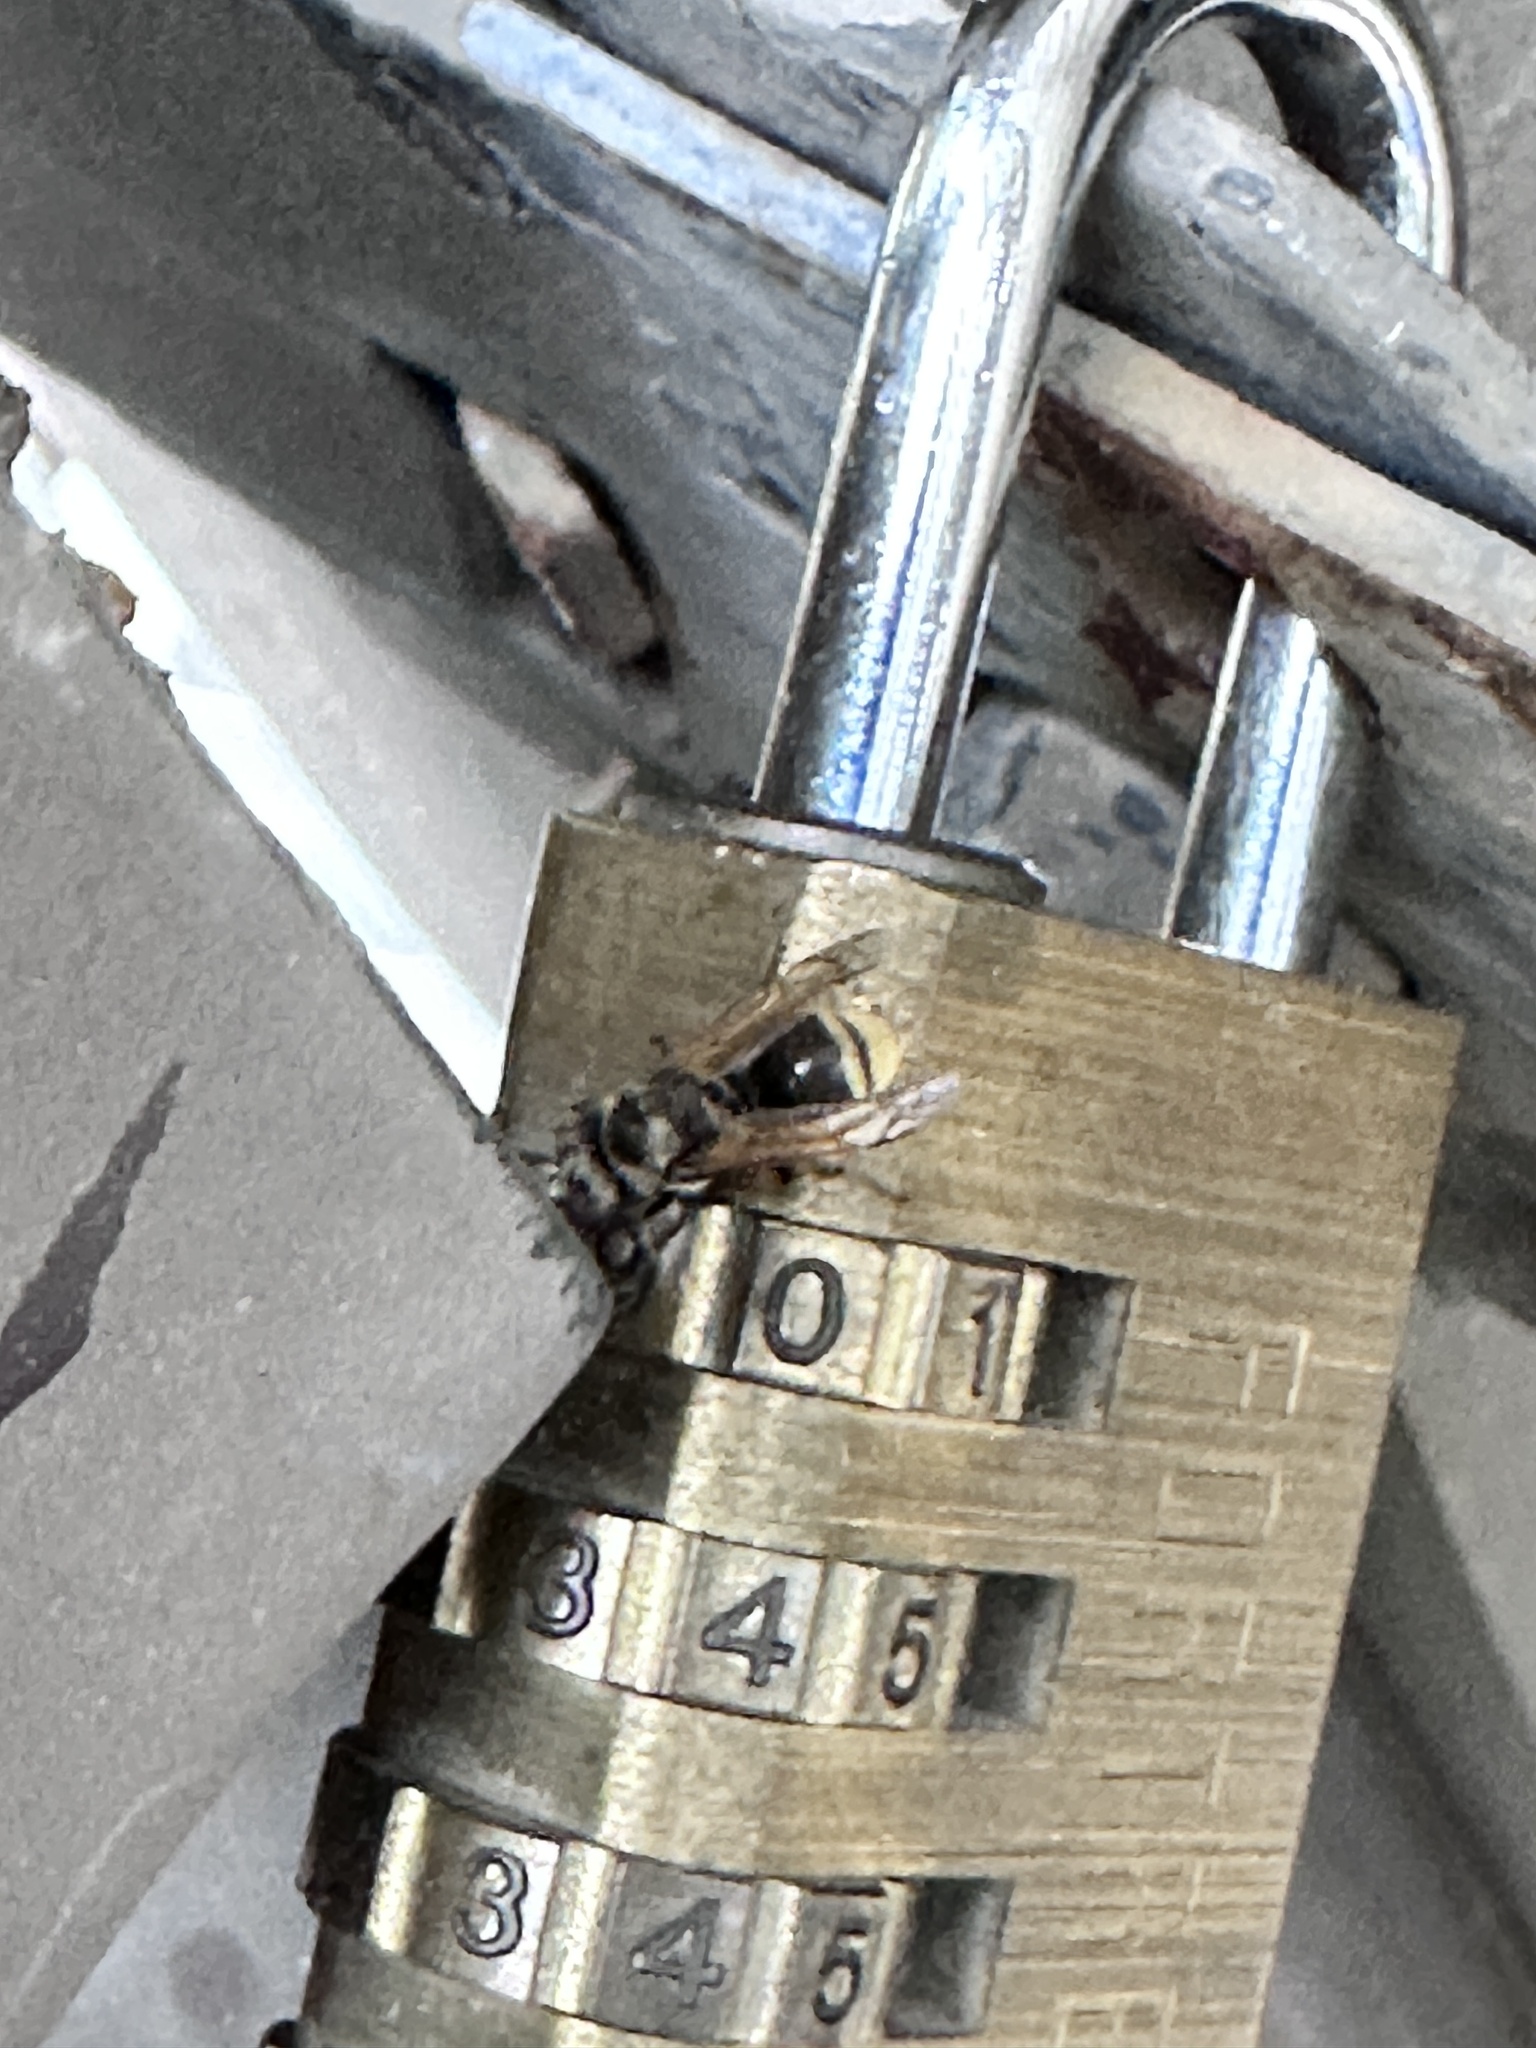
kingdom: Animalia
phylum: Arthropoda
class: Insecta
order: Hymenoptera
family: Vespidae
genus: Brachygastra
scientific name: Brachygastra mellifica
